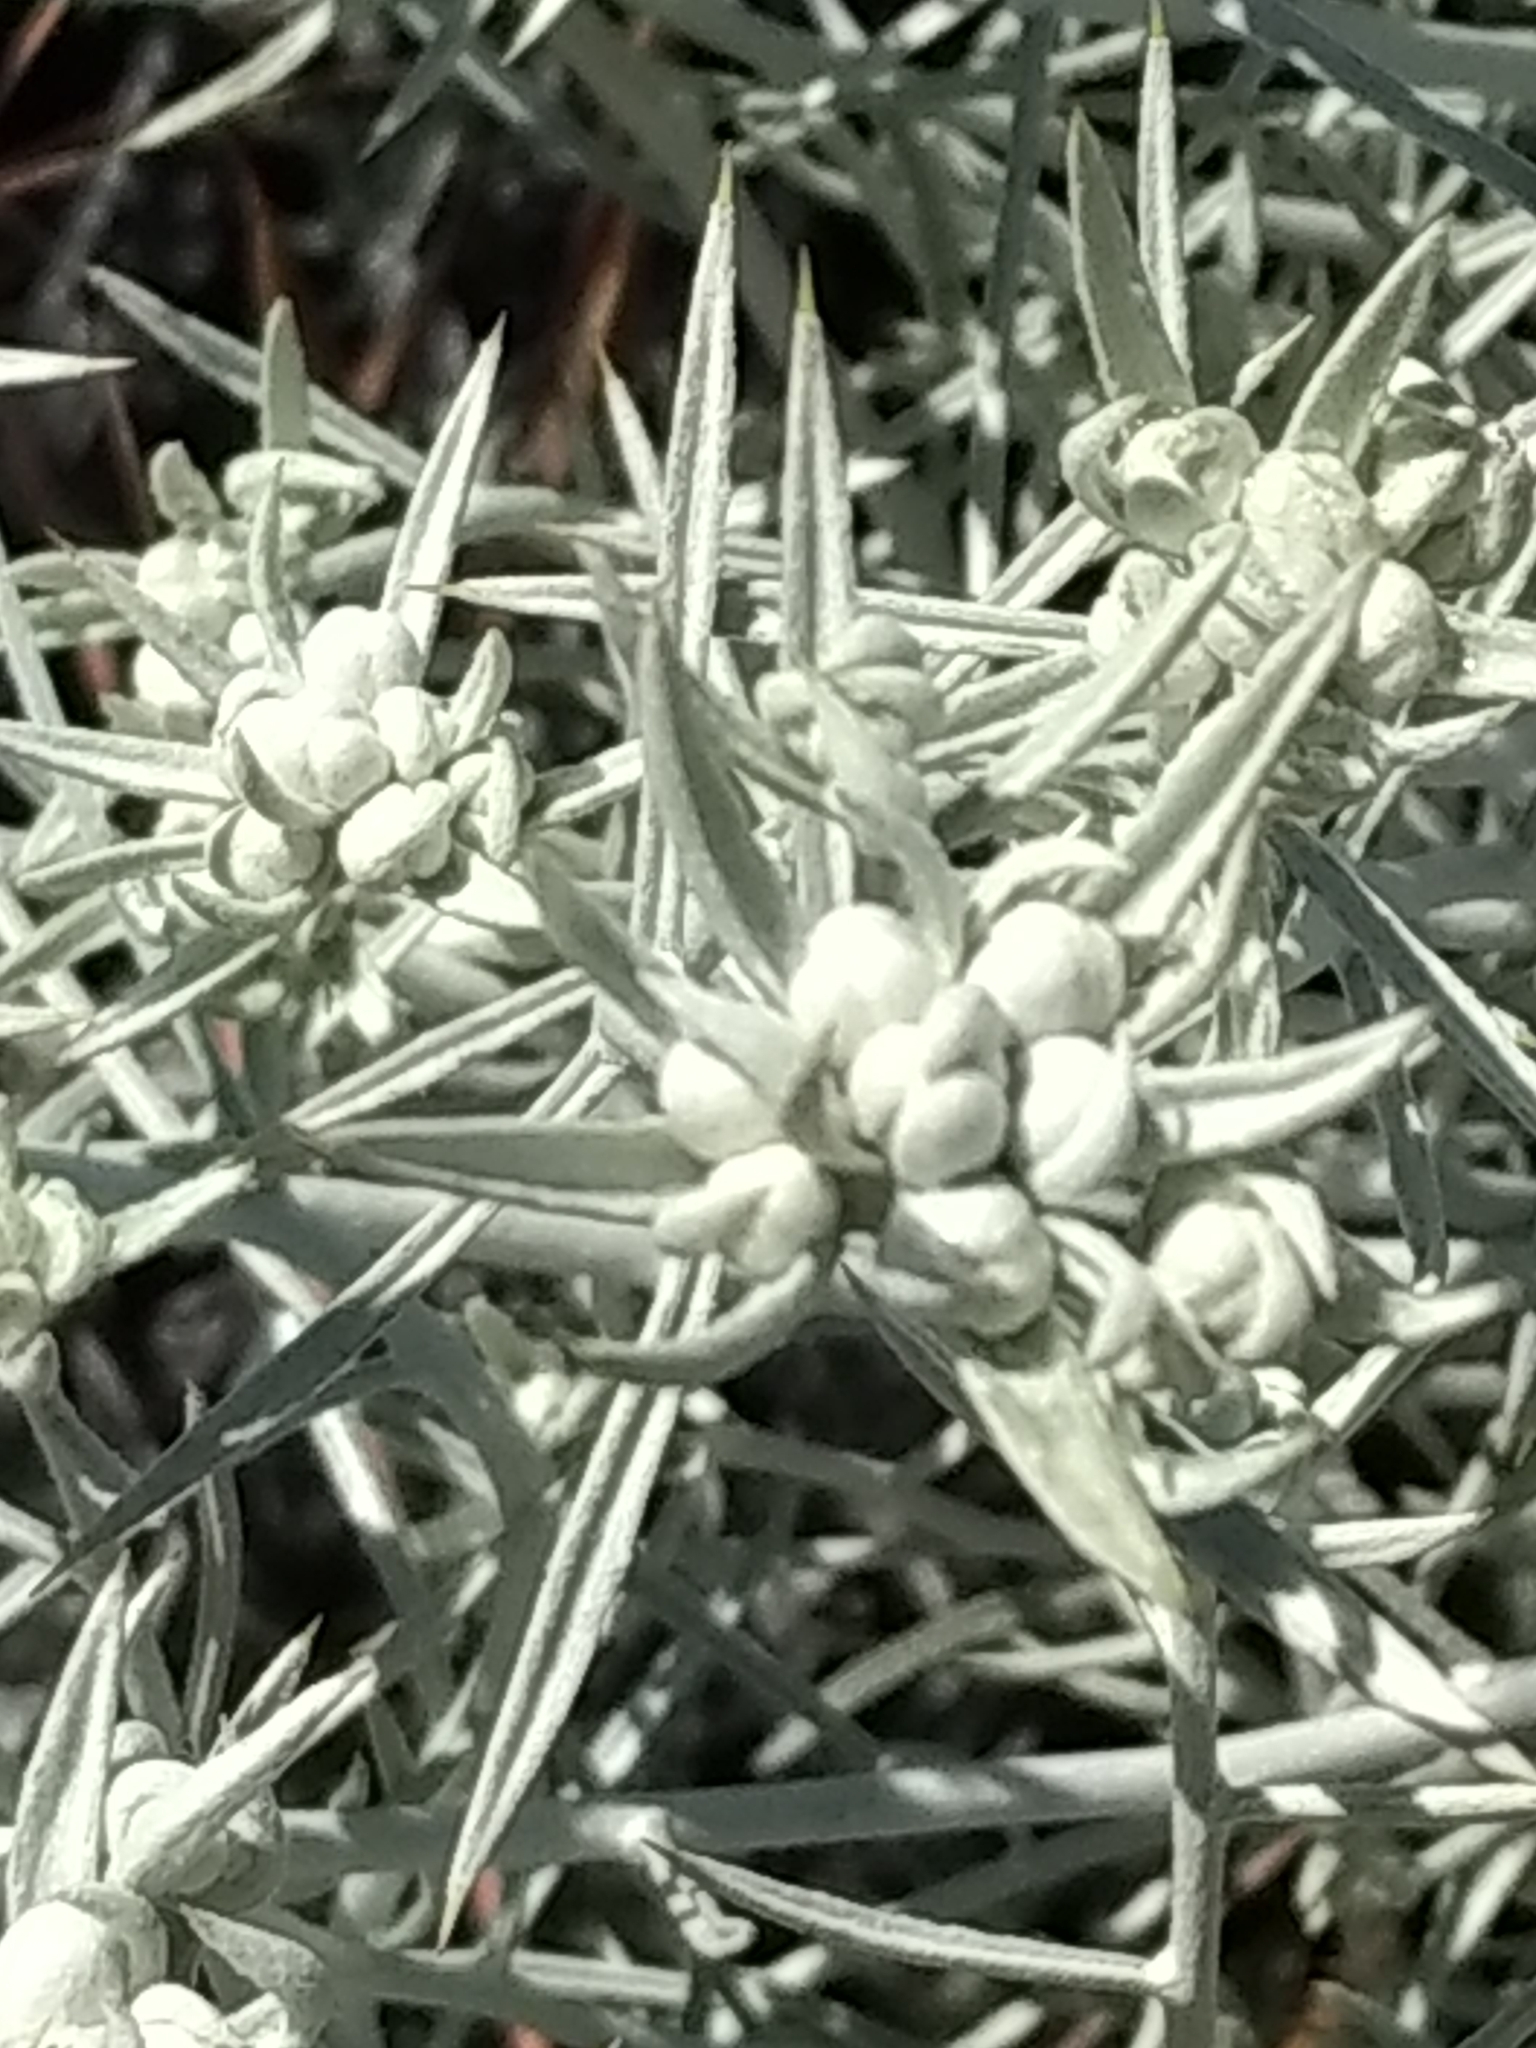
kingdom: Plantae
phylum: Tracheophyta
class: Magnoliopsida
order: Asterales
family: Asteraceae
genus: Tetradymia
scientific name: Tetradymia comosa
